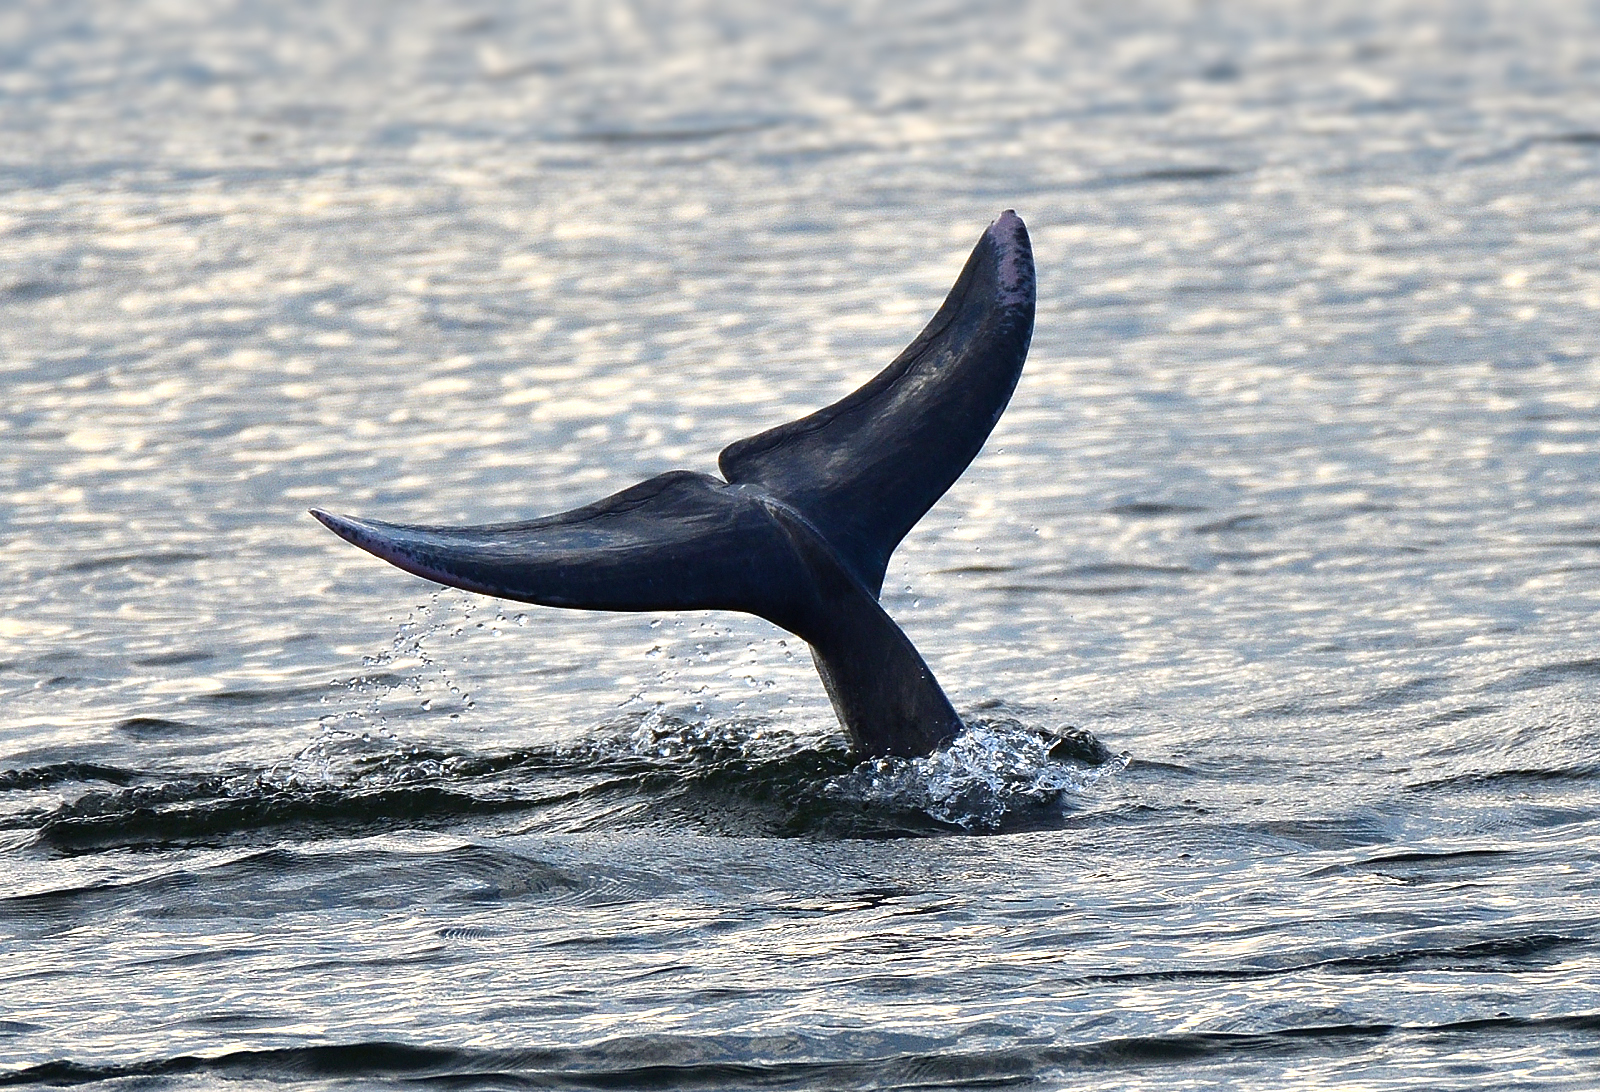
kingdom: Animalia
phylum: Chordata
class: Mammalia
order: Cetacea
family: Delphinidae
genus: Sousa
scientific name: Sousa plumbea
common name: Indian ocean humpback dolphin
